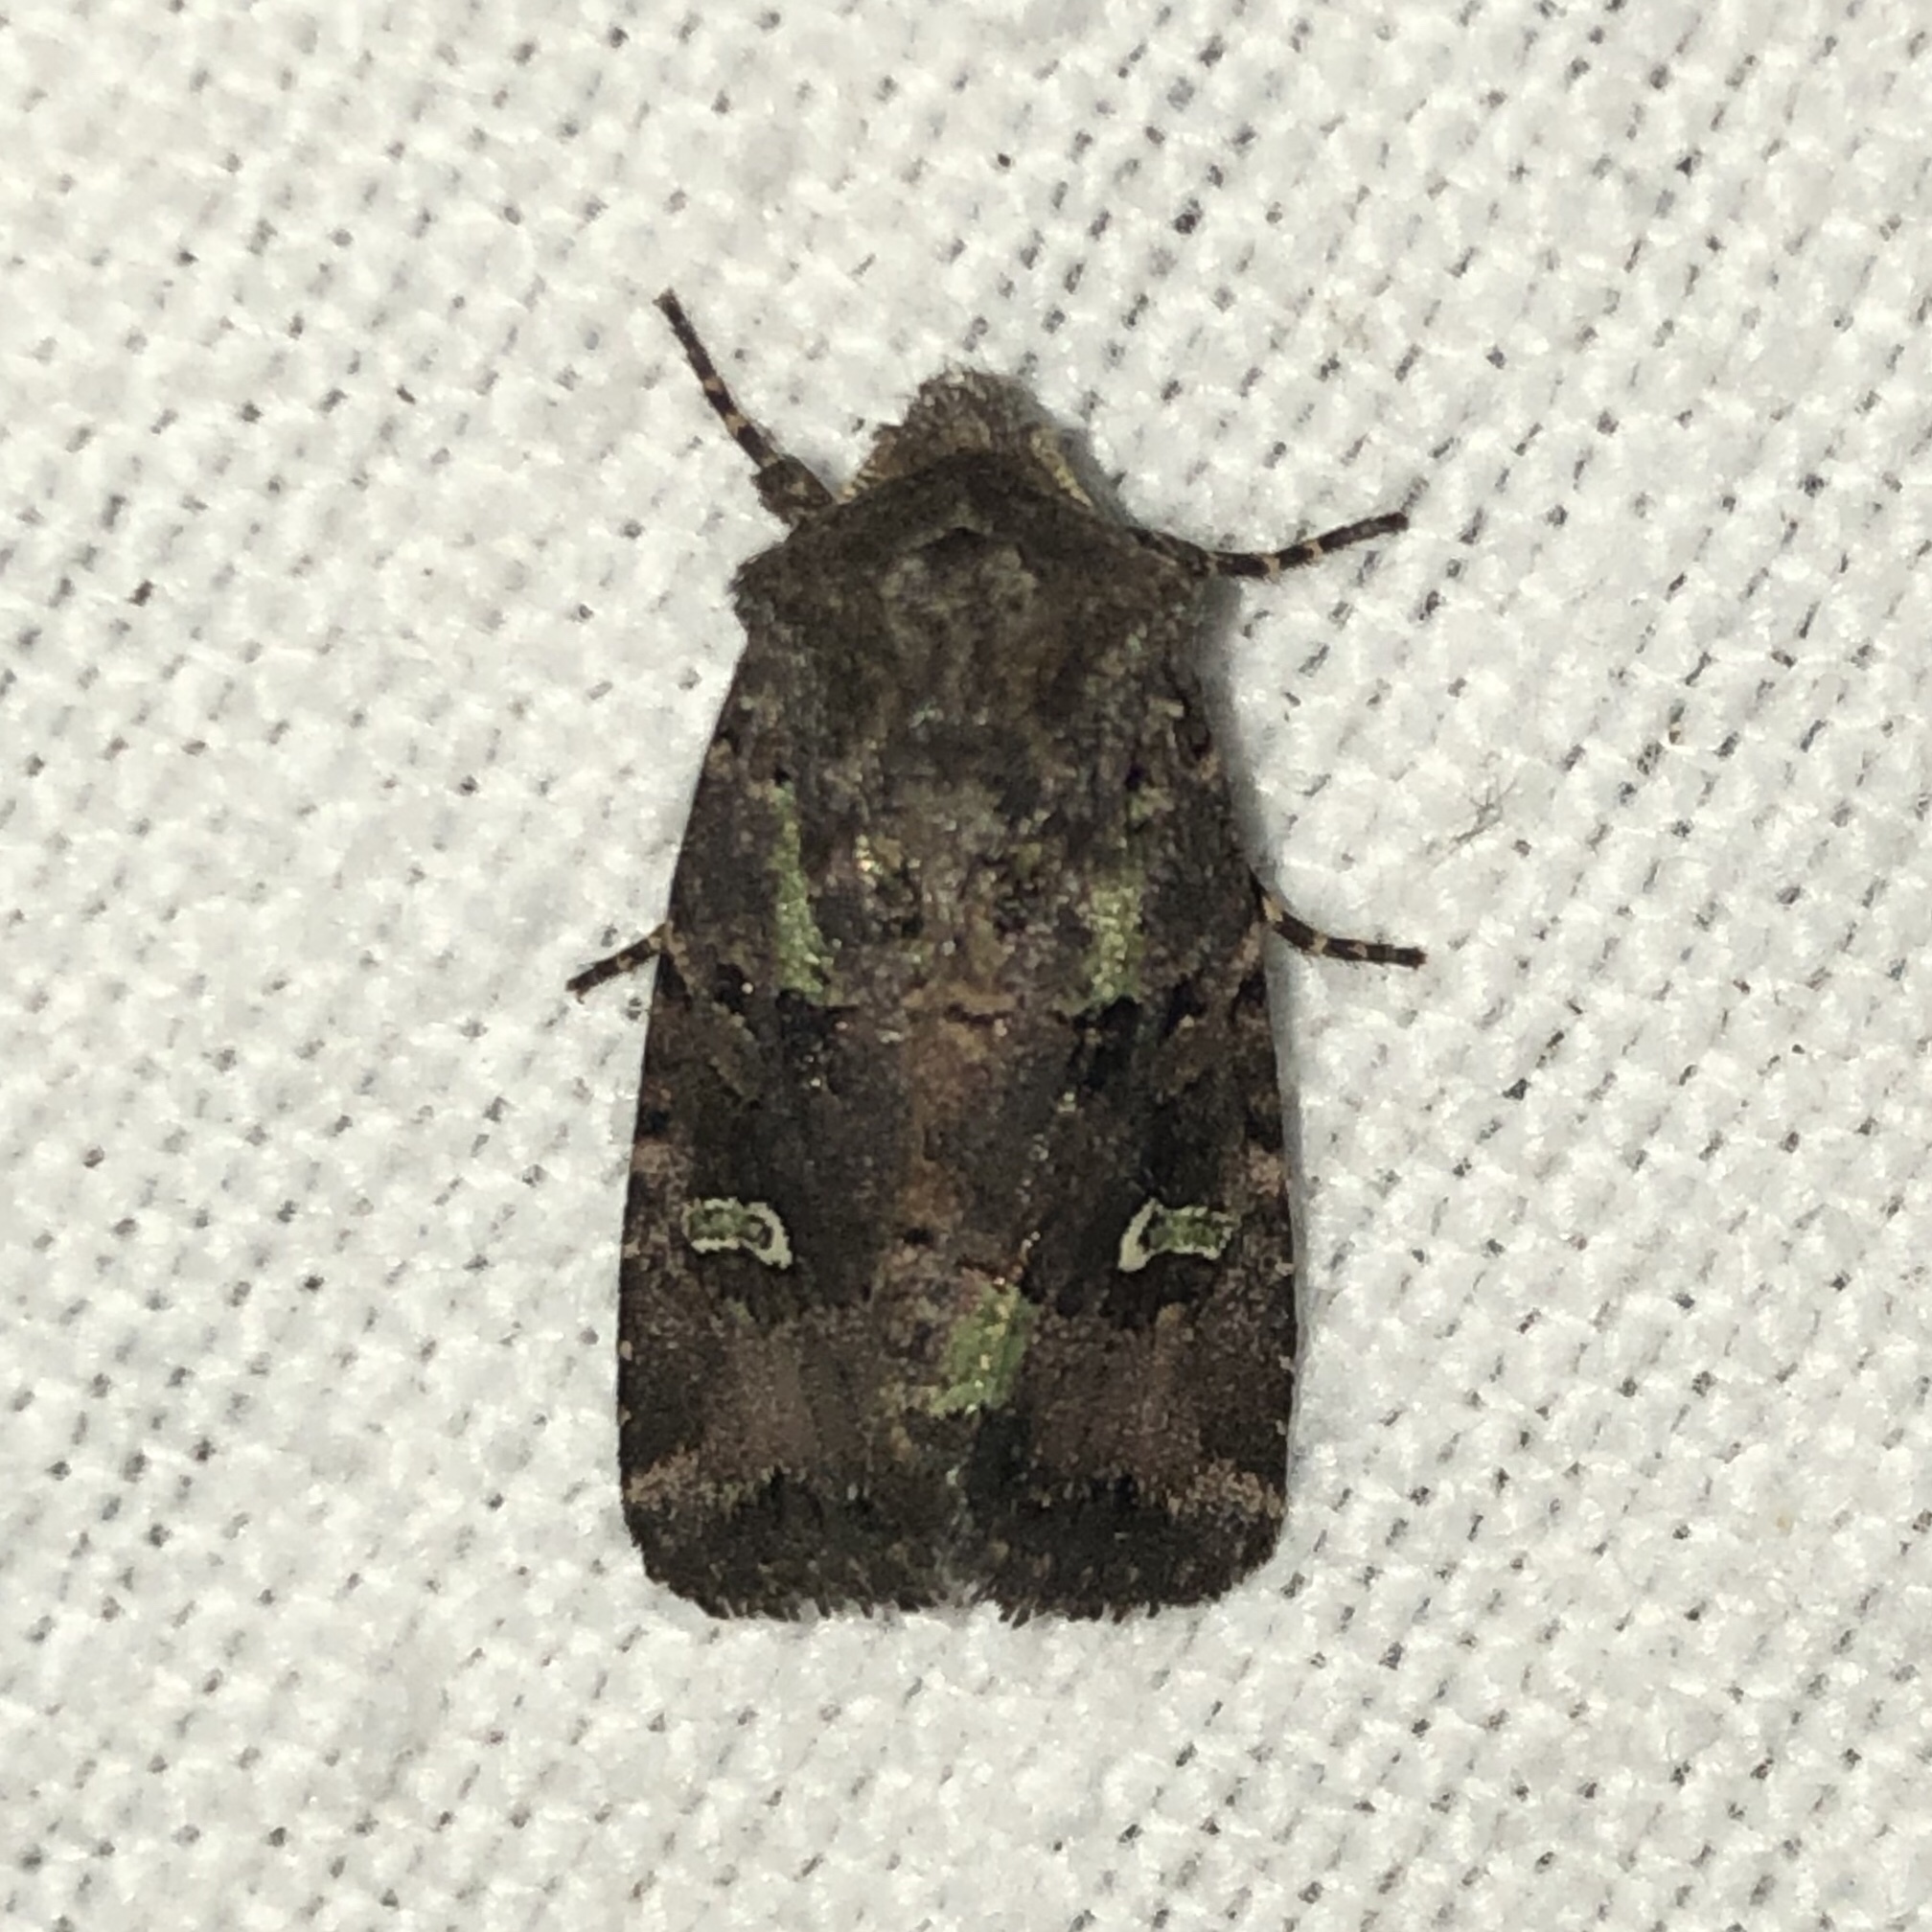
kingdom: Animalia
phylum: Arthropoda
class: Insecta
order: Lepidoptera
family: Noctuidae
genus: Lacinipolia
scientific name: Lacinipolia renigera
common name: Kidney-spotted minor
